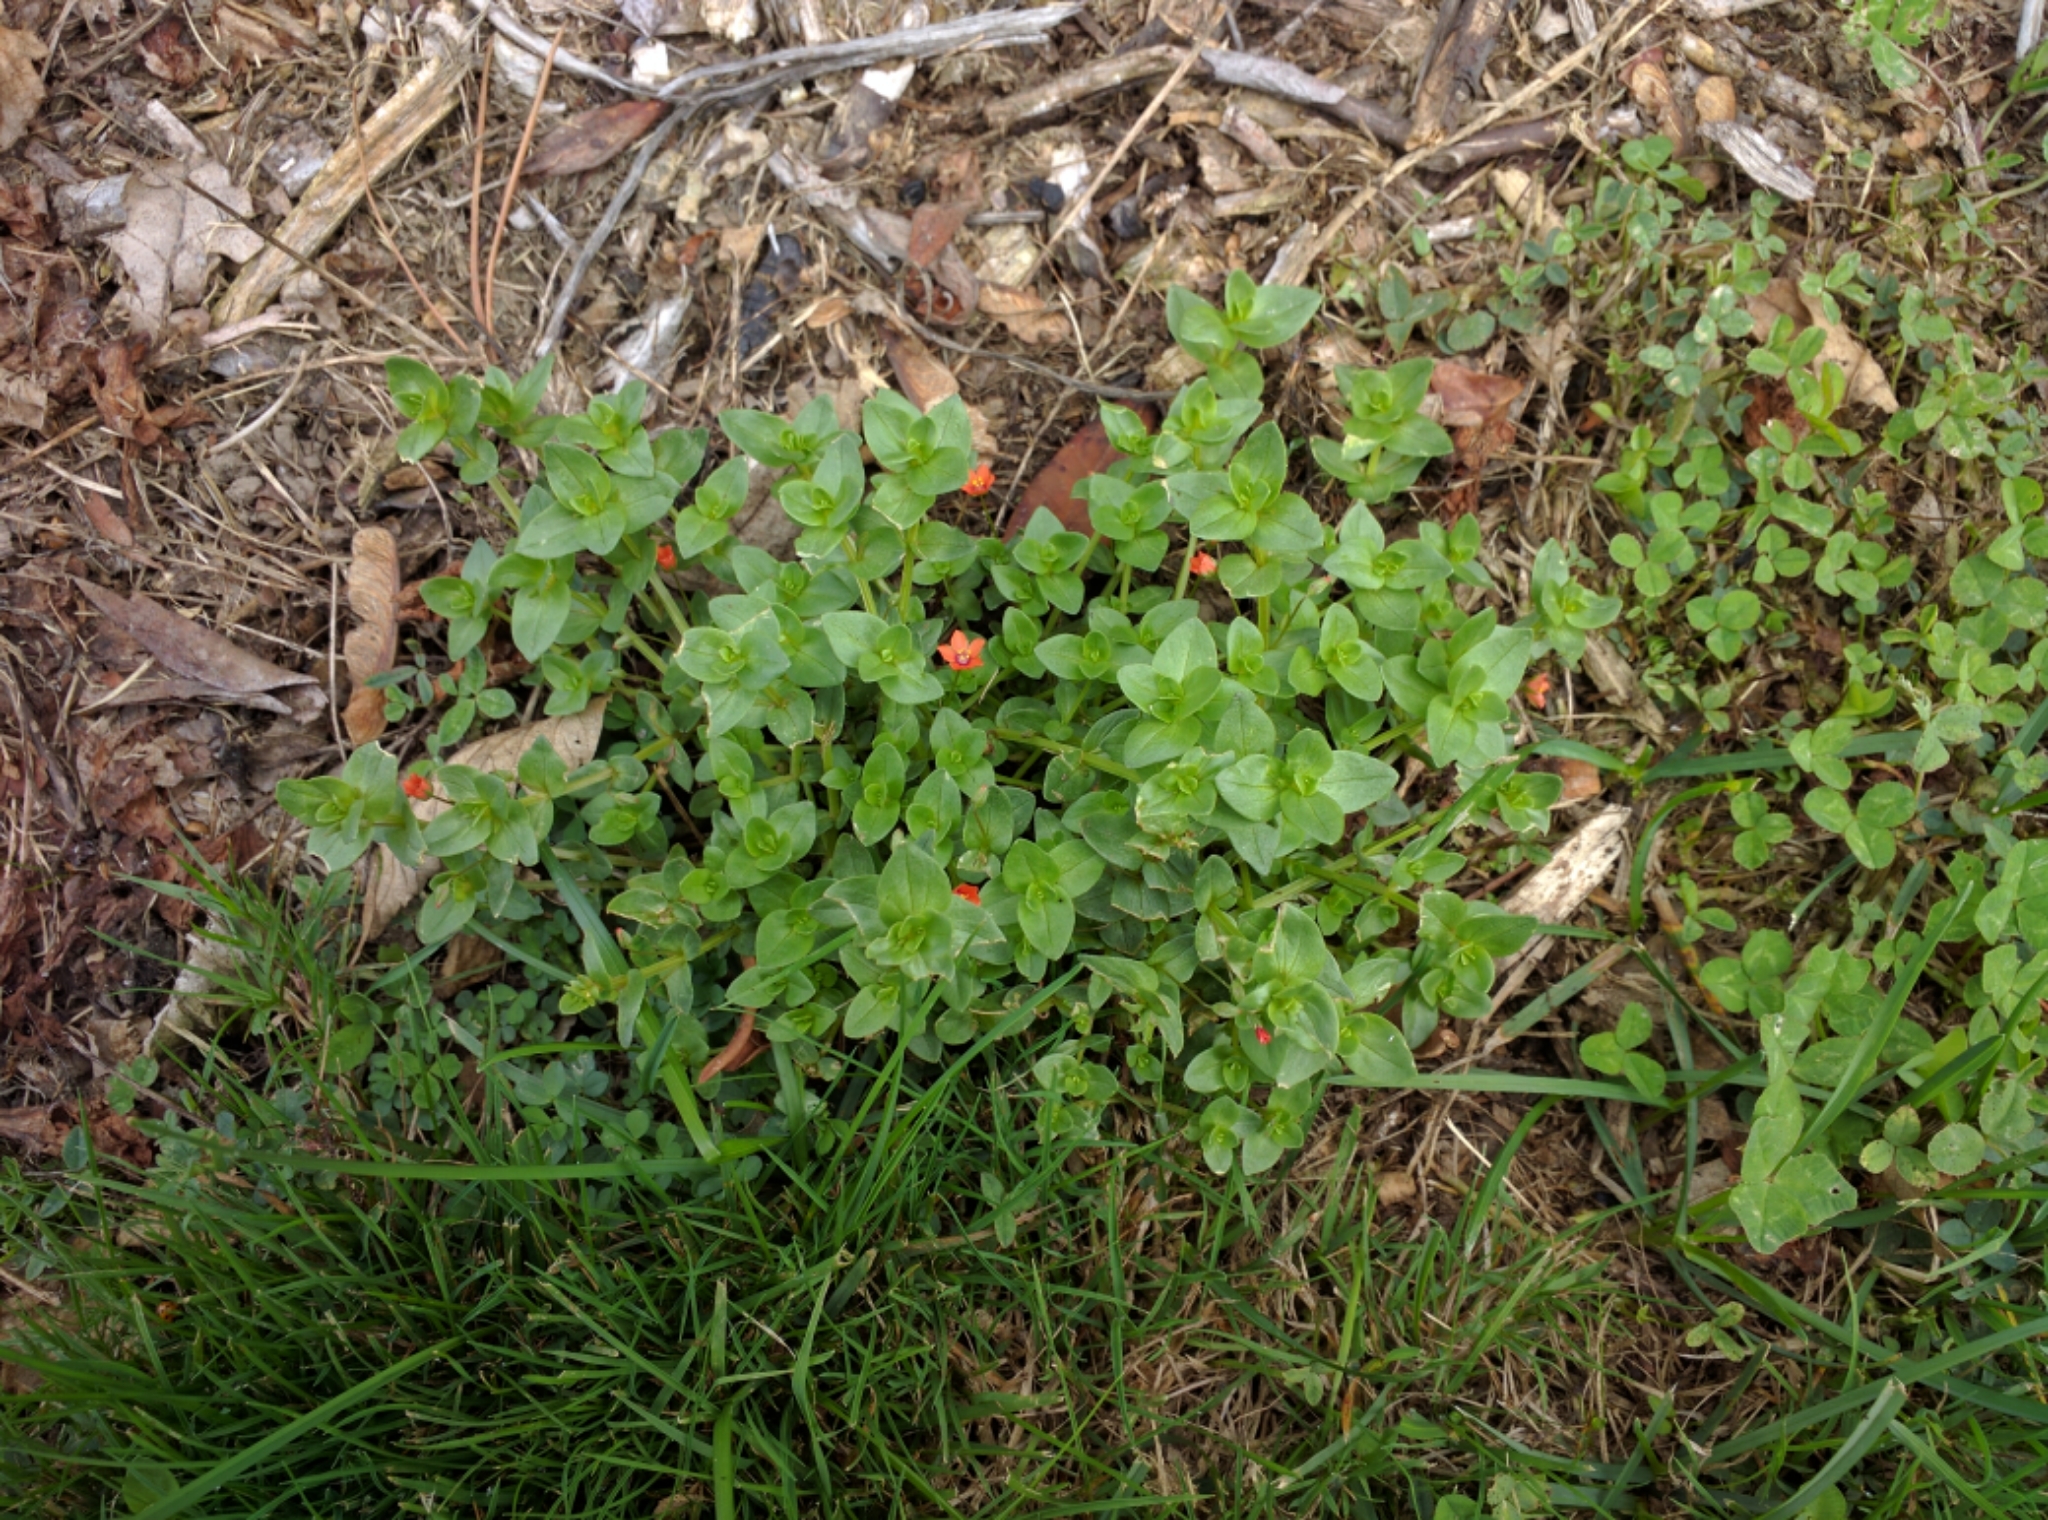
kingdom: Plantae
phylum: Tracheophyta
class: Magnoliopsida
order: Ericales
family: Primulaceae
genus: Lysimachia
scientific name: Lysimachia arvensis
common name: Scarlet pimpernel
